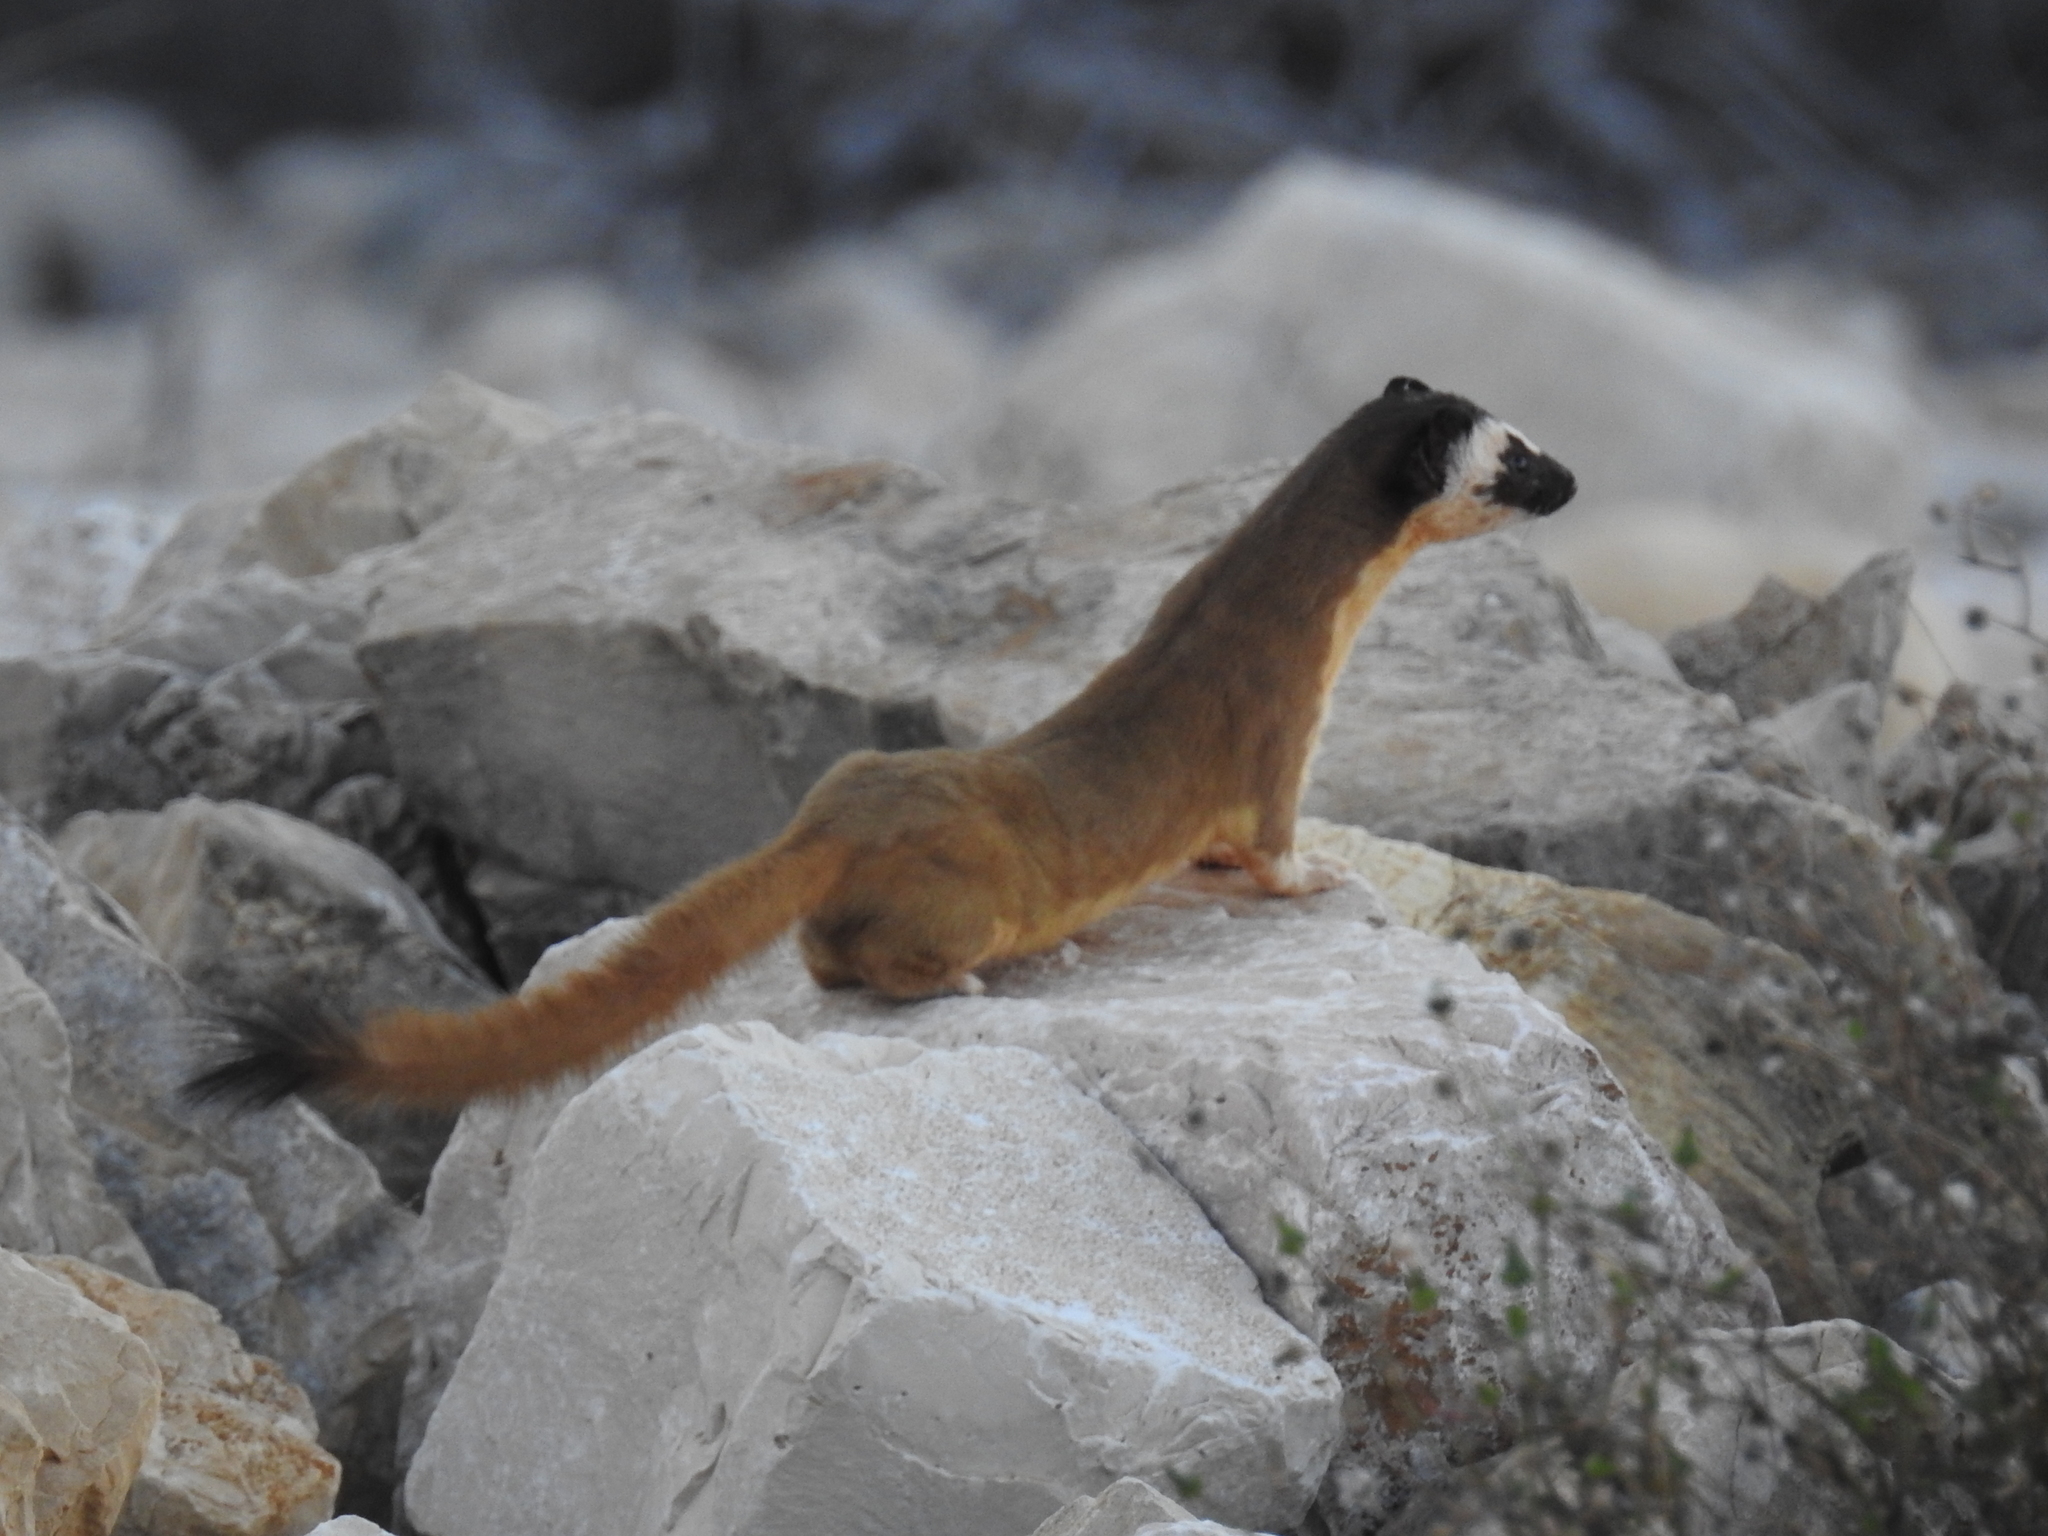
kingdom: Animalia
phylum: Chordata
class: Mammalia
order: Carnivora
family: Mustelidae
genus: Mustela
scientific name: Mustela
